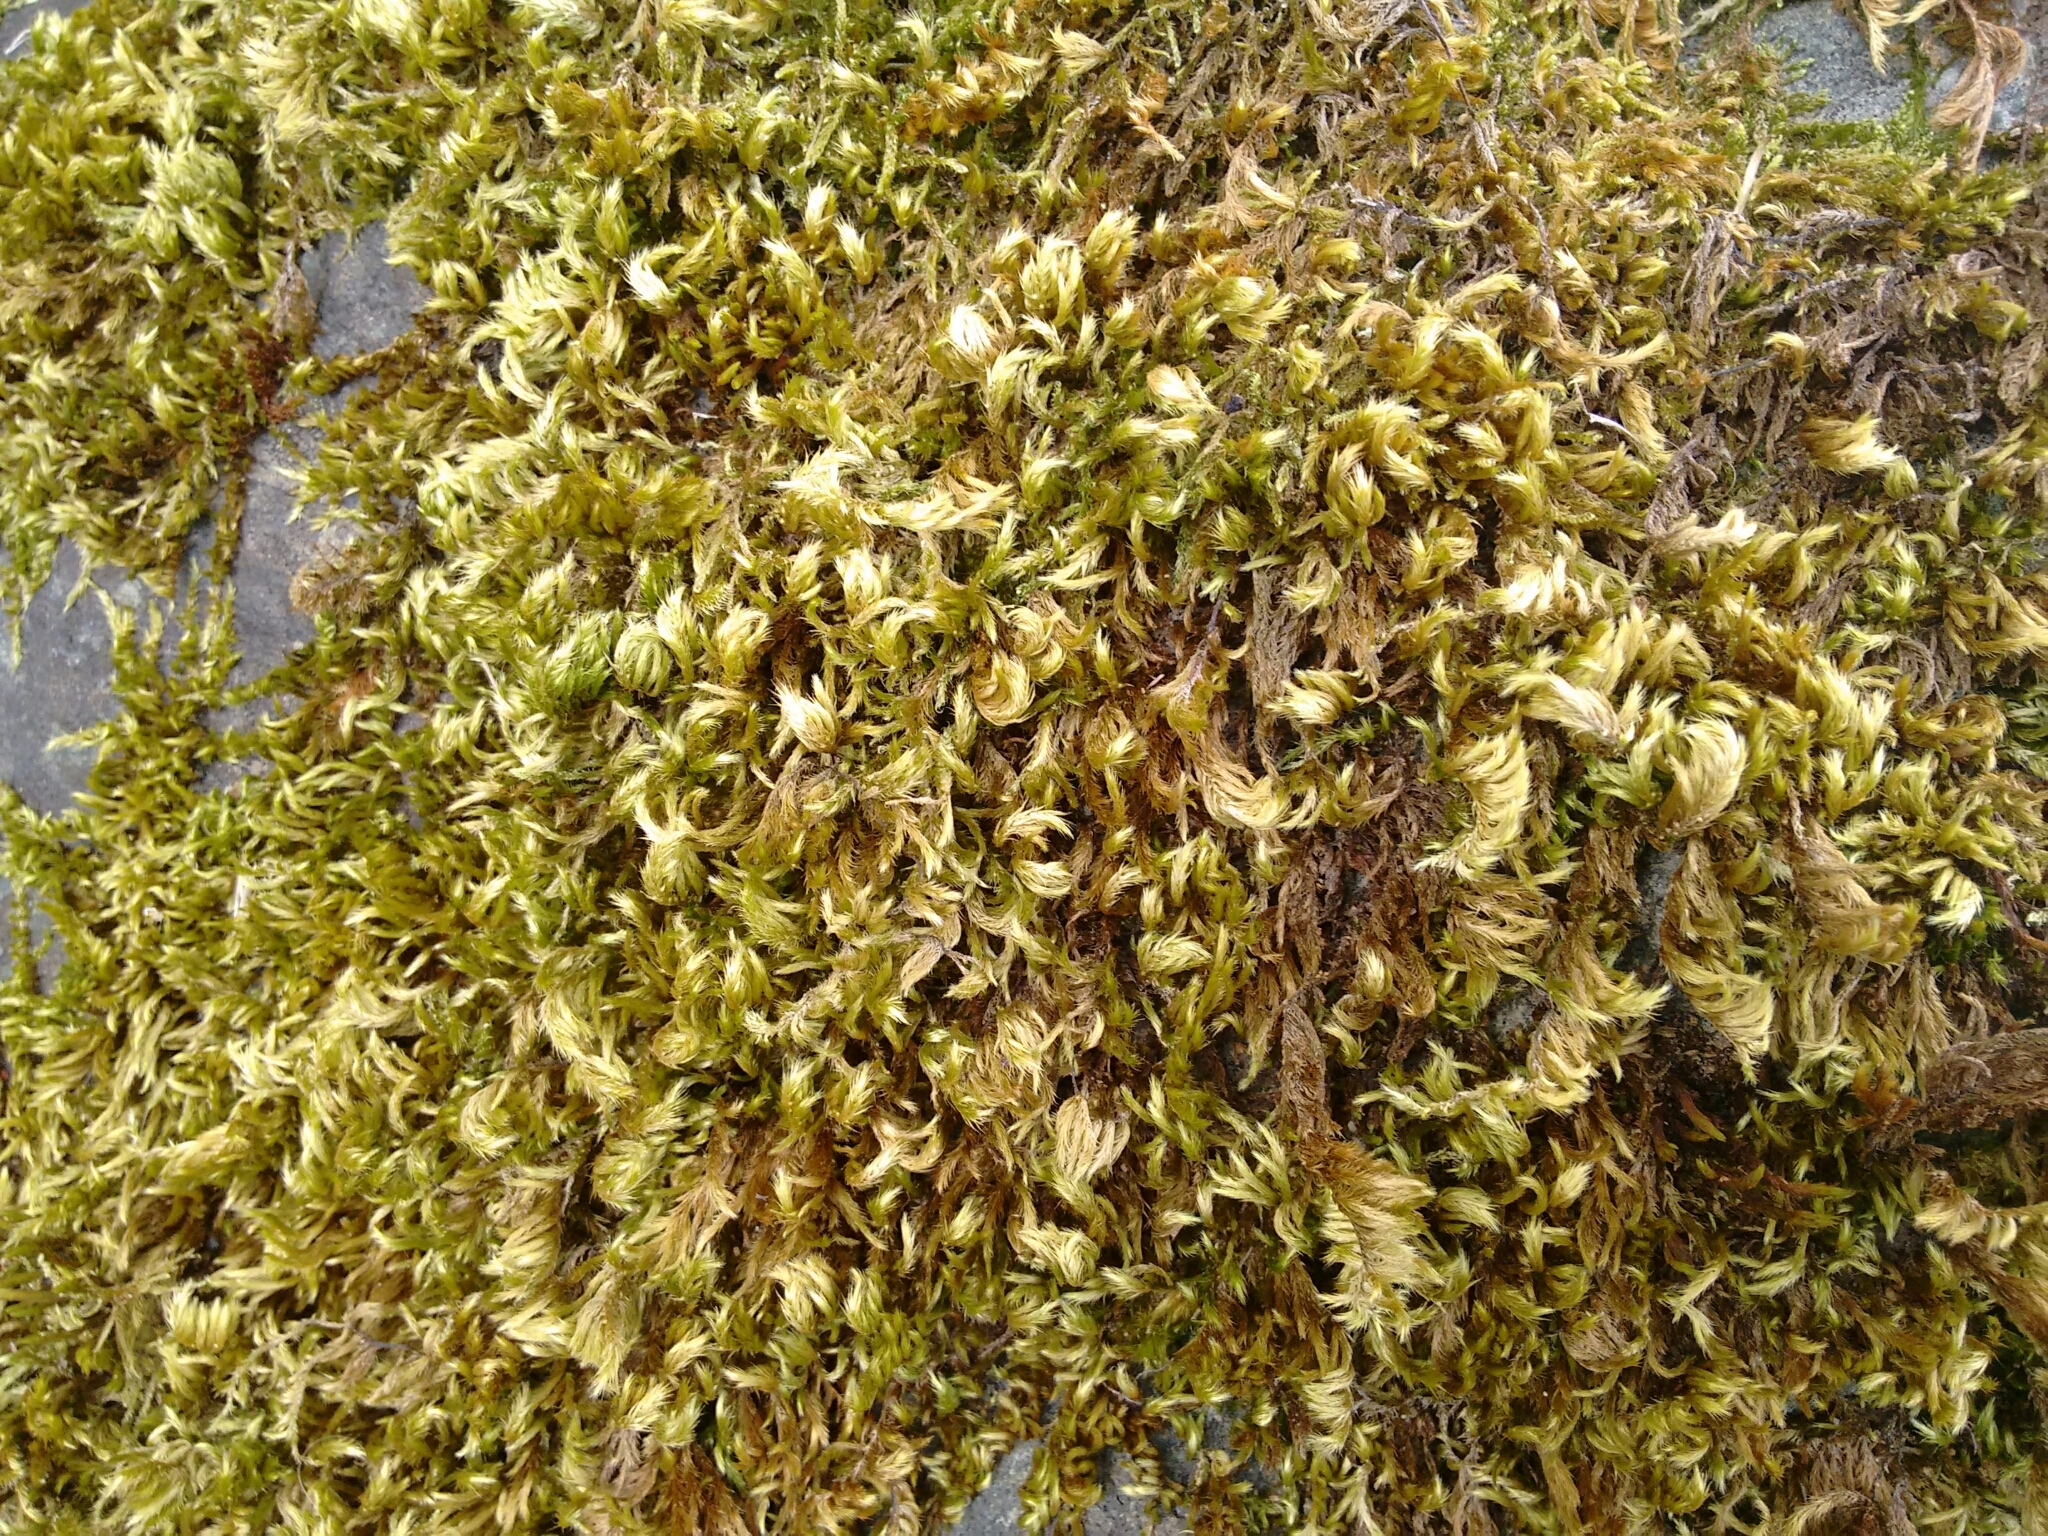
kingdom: Plantae
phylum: Bryophyta
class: Bryopsida
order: Hypnales
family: Brachytheciaceae
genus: Homalothecium
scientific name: Homalothecium sericeum
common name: Silky wall feather-moss
